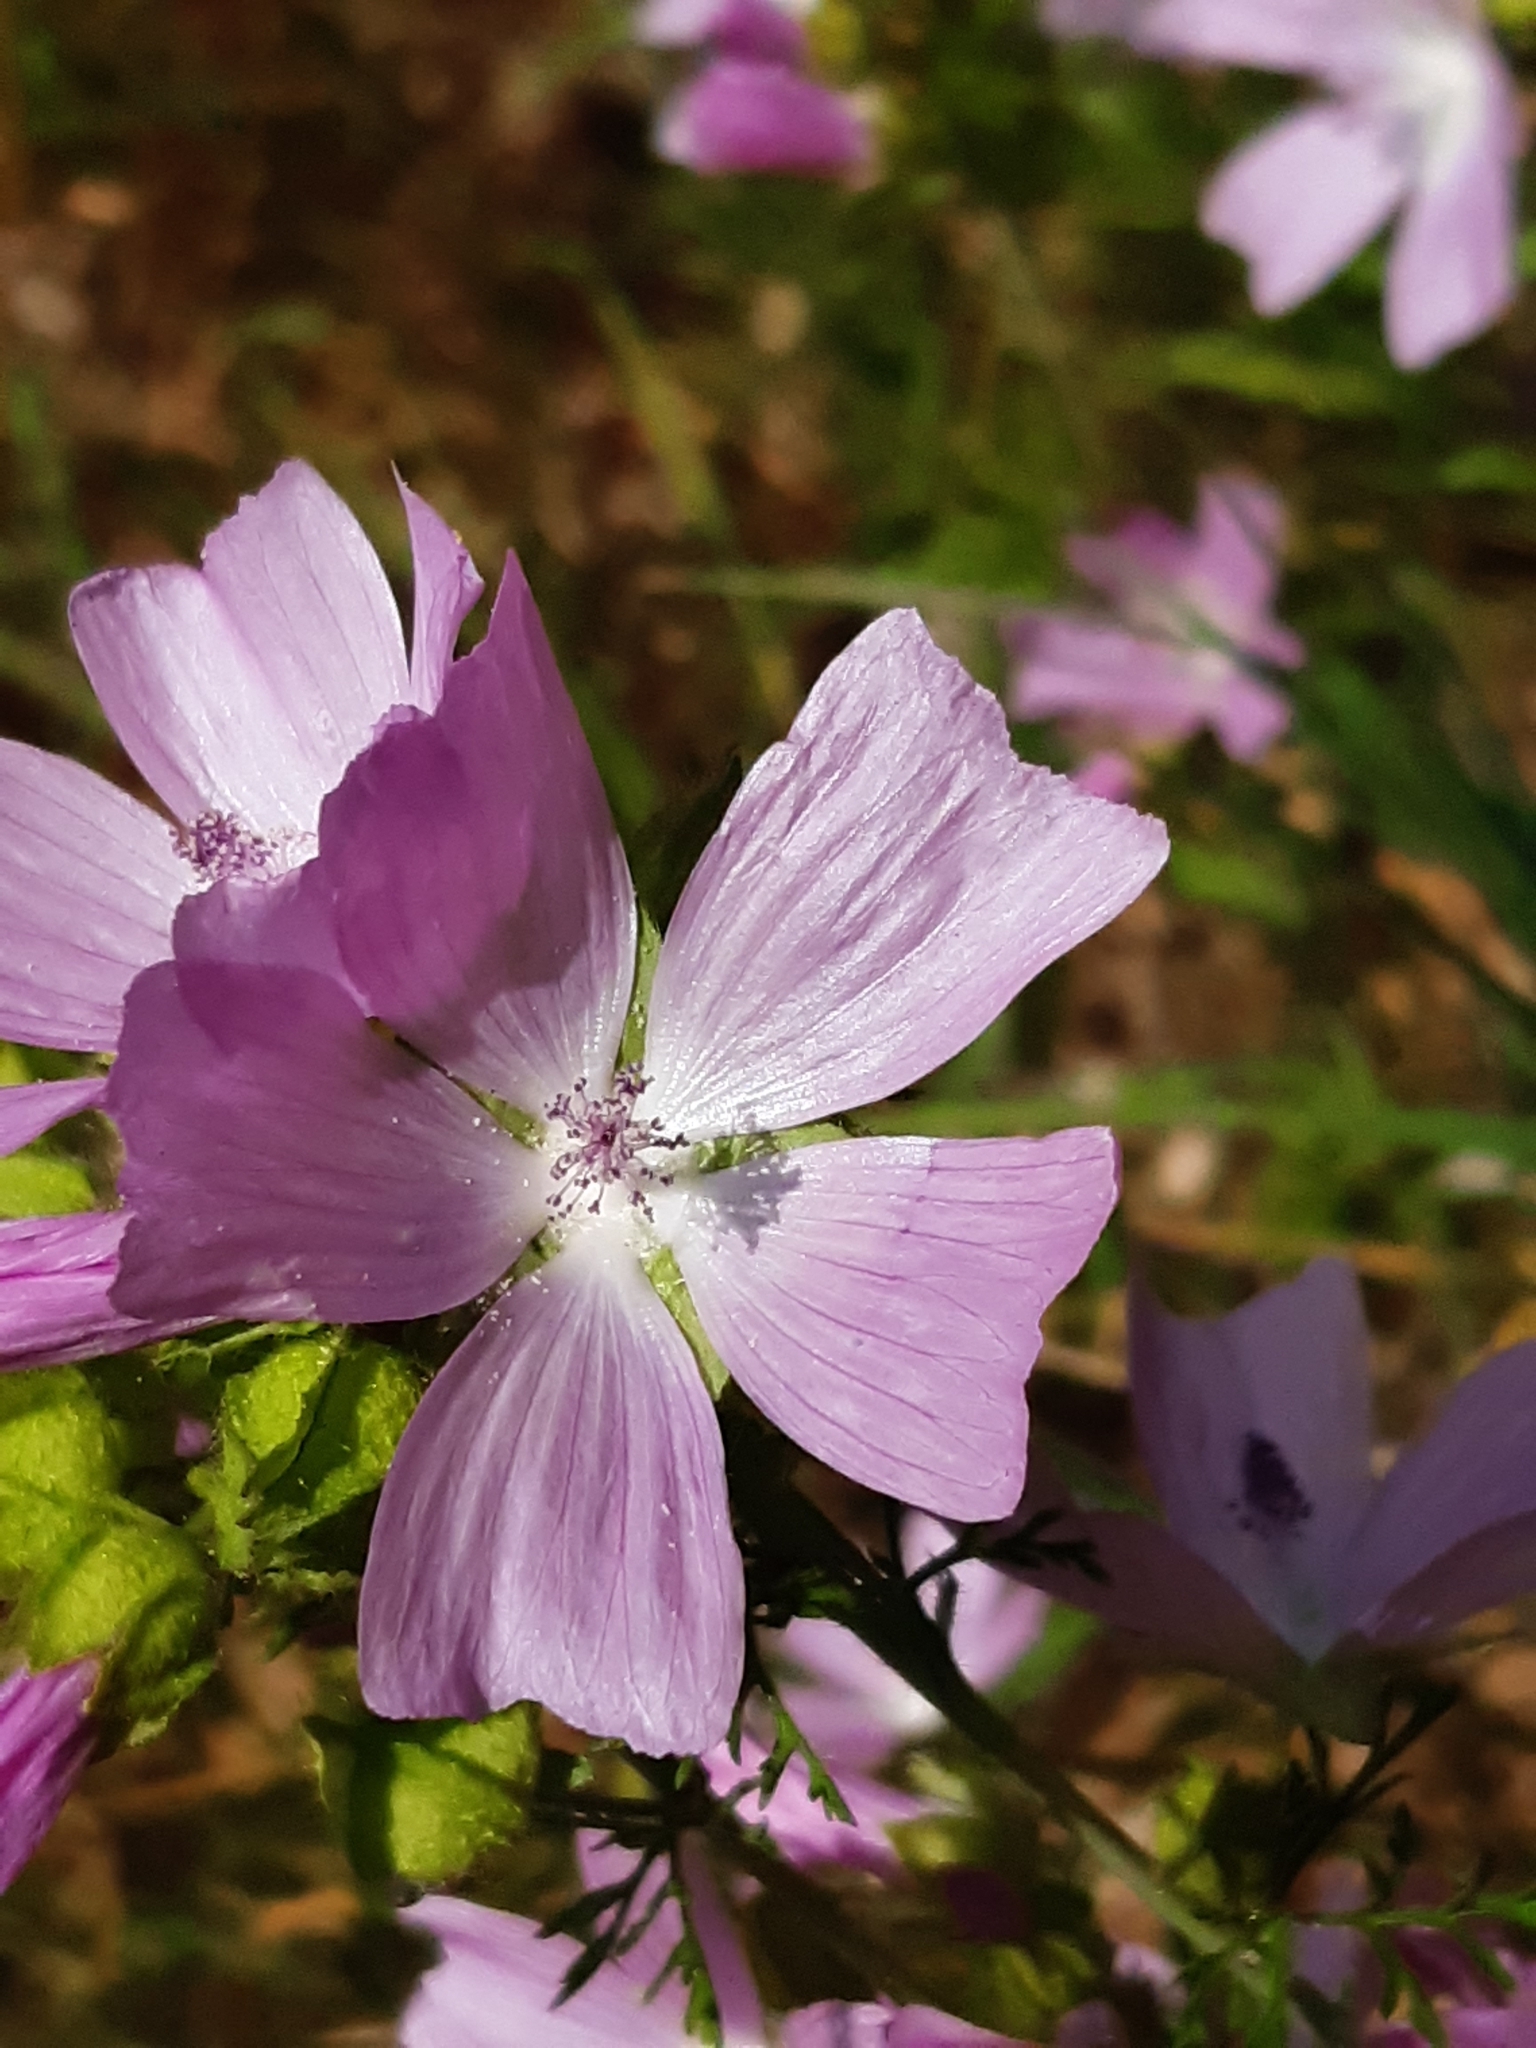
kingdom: Plantae
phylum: Tracheophyta
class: Magnoliopsida
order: Malvales
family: Malvaceae
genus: Malva
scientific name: Malva moschata
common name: Musk mallow
